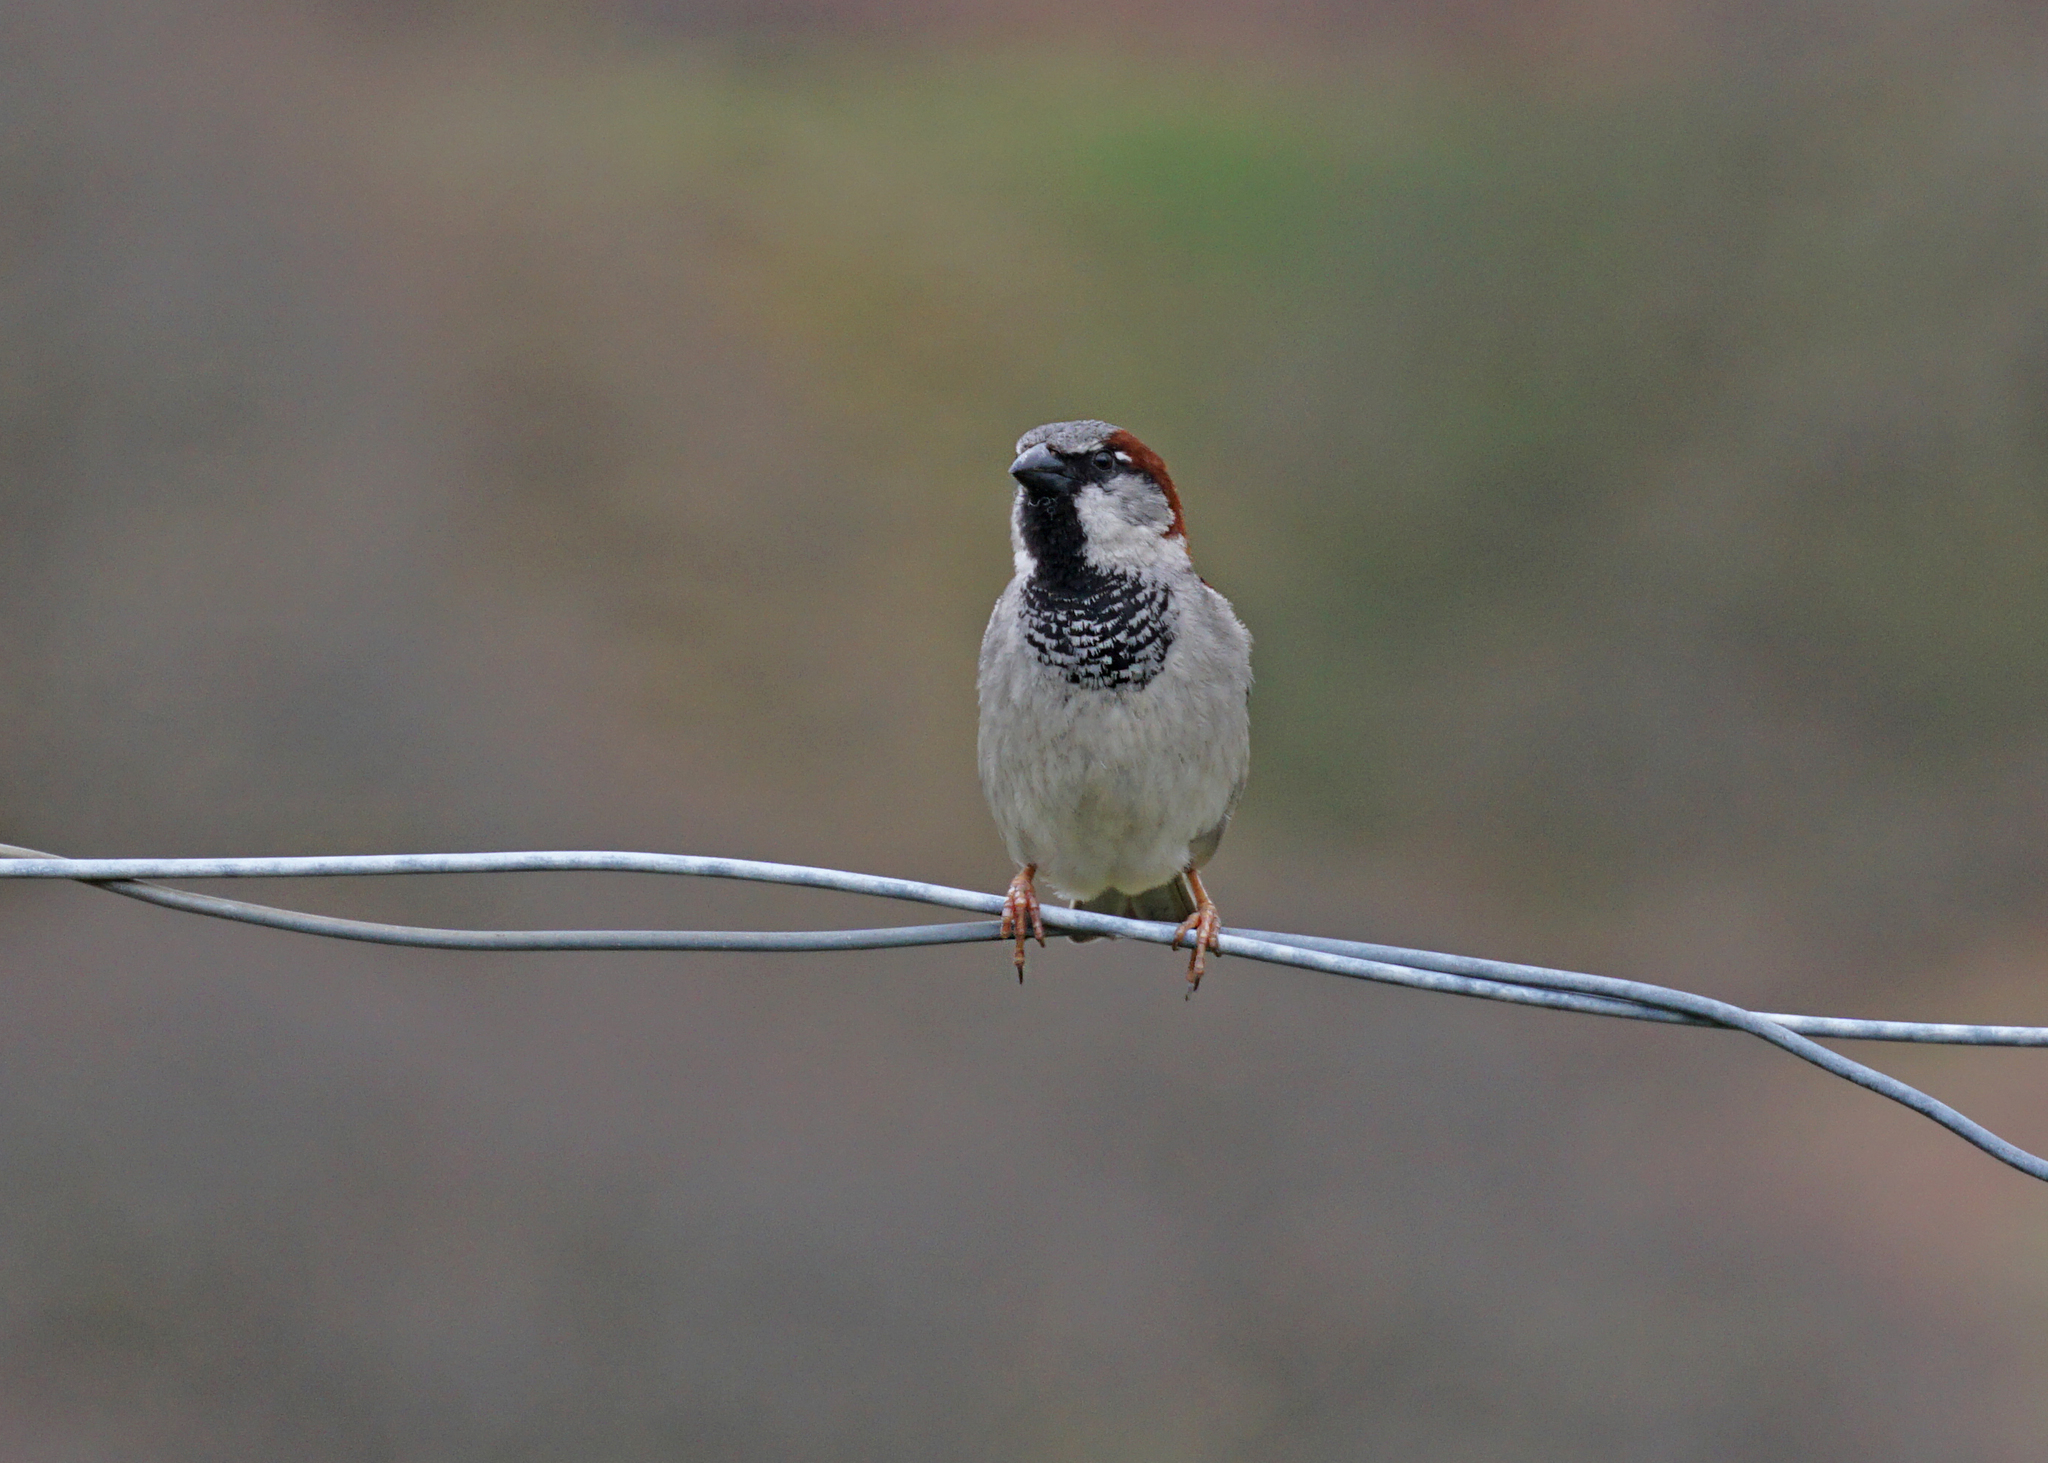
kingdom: Animalia
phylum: Chordata
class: Aves
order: Passeriformes
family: Passeridae
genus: Passer
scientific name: Passer domesticus
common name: House sparrow
